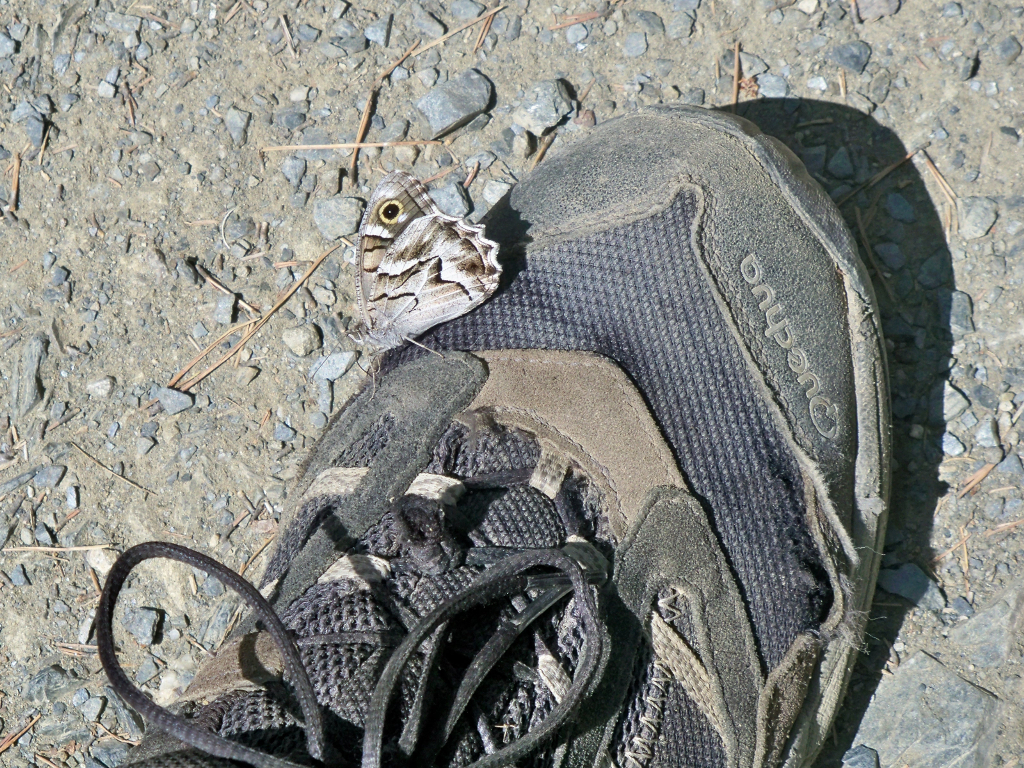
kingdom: Animalia
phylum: Arthropoda
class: Insecta
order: Lepidoptera
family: Nymphalidae
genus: Hipparchia
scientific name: Hipparchia fidia
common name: Striped grayling
